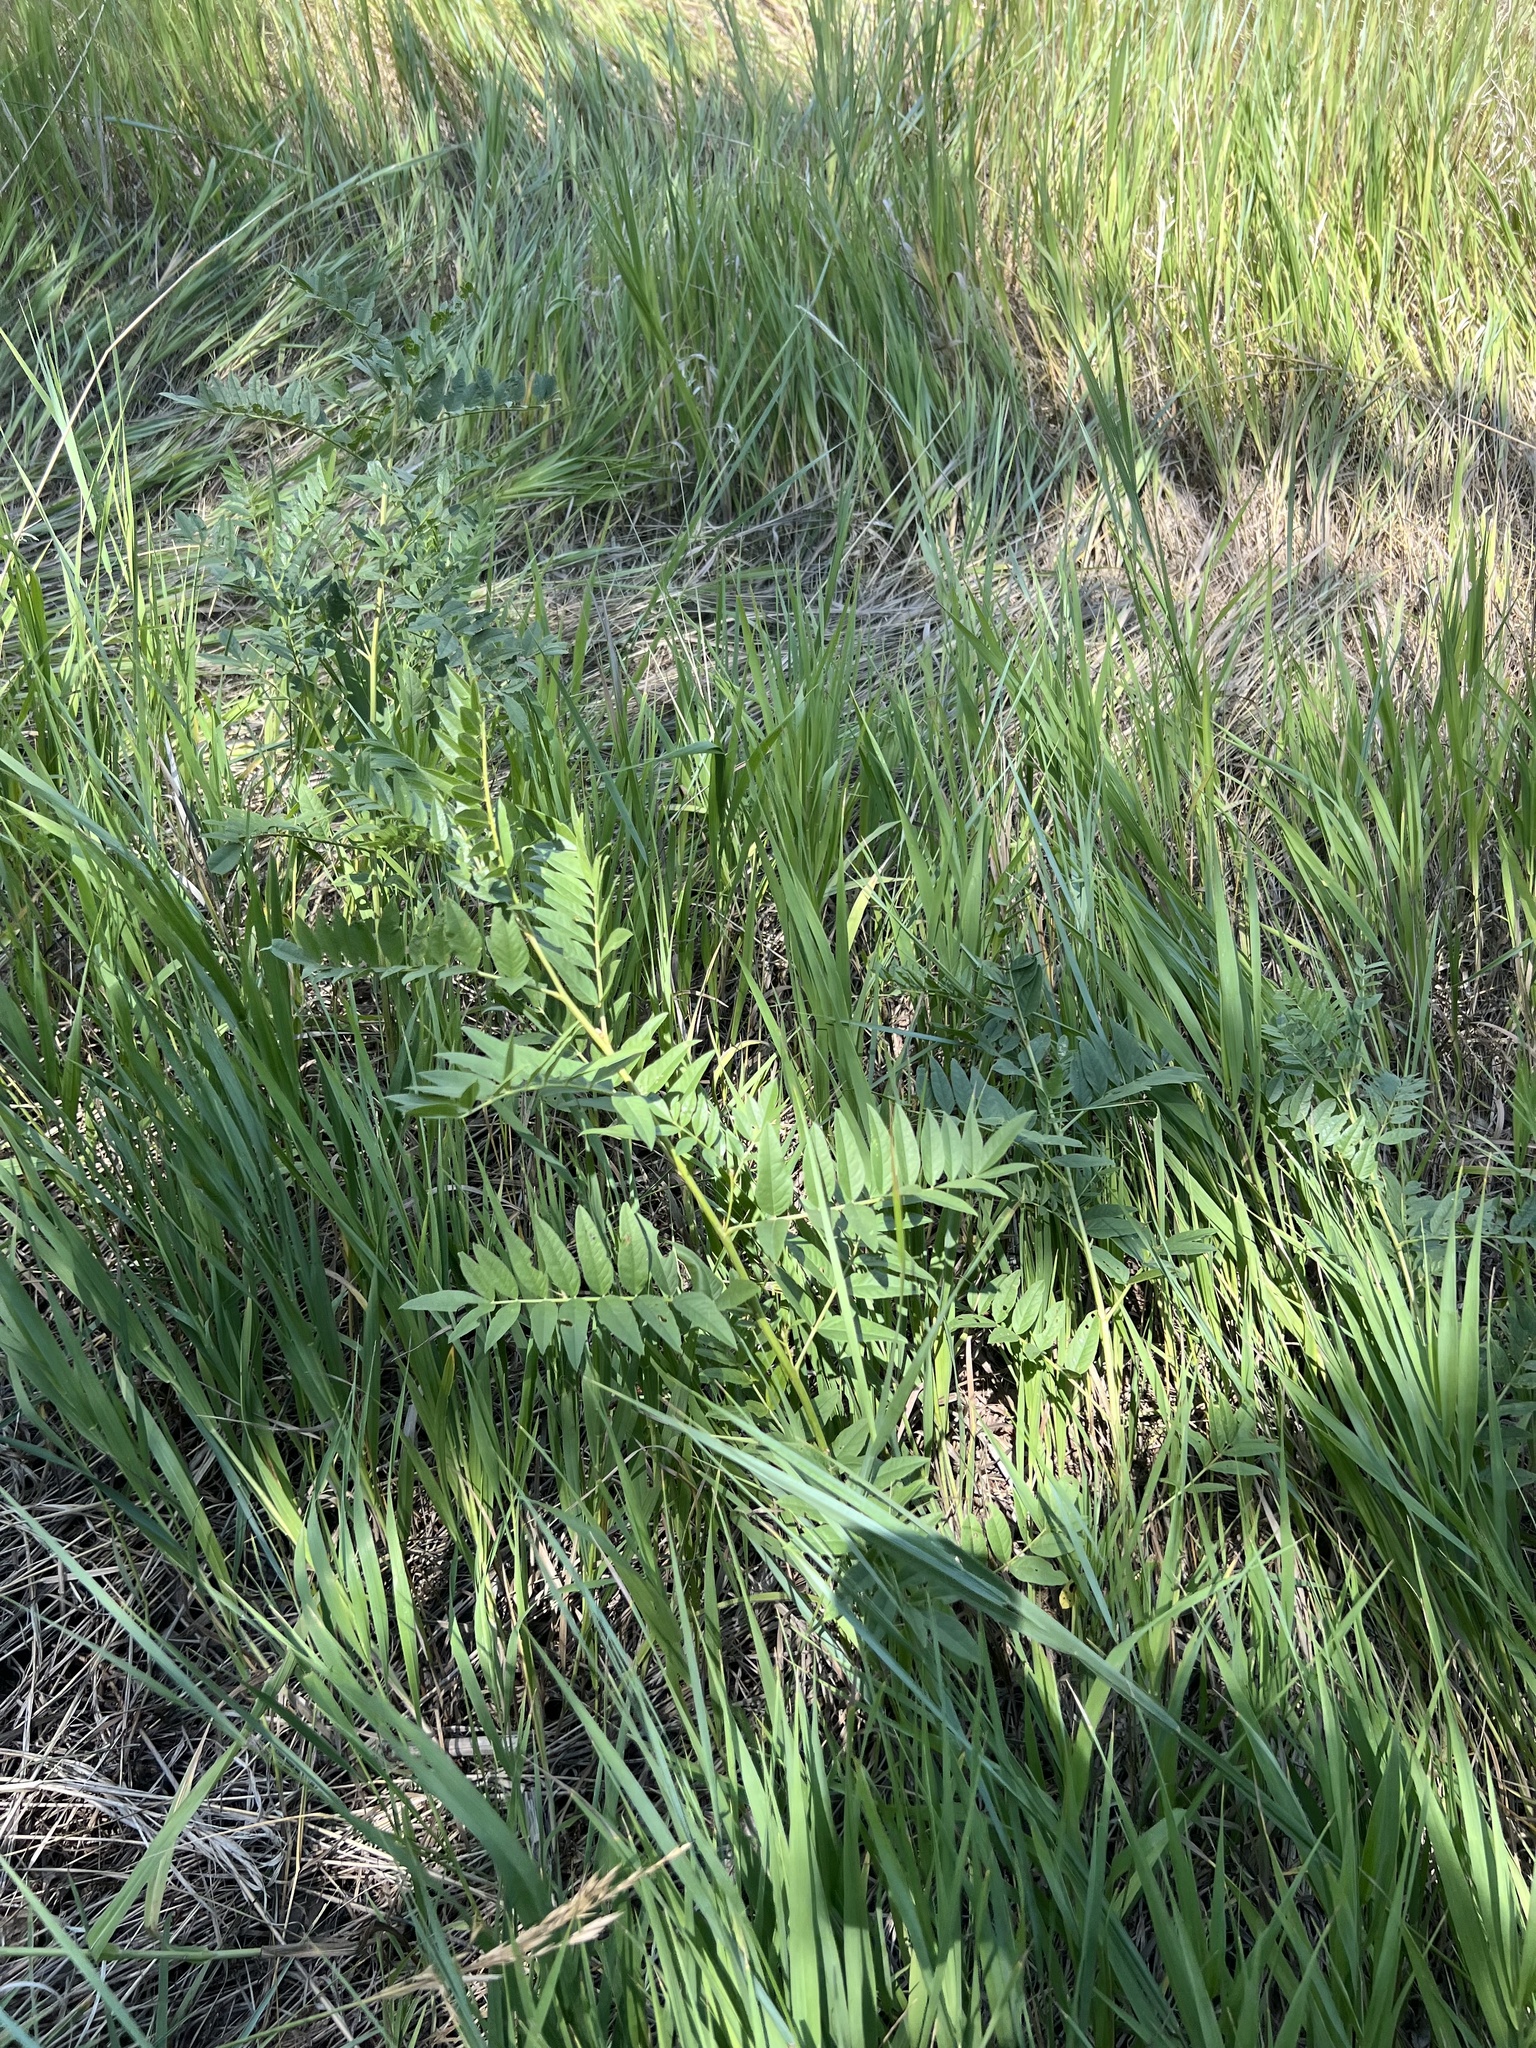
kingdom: Plantae
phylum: Tracheophyta
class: Magnoliopsida
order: Fabales
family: Fabaceae
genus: Glycyrrhiza
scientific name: Glycyrrhiza lepidota
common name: American liquorice
